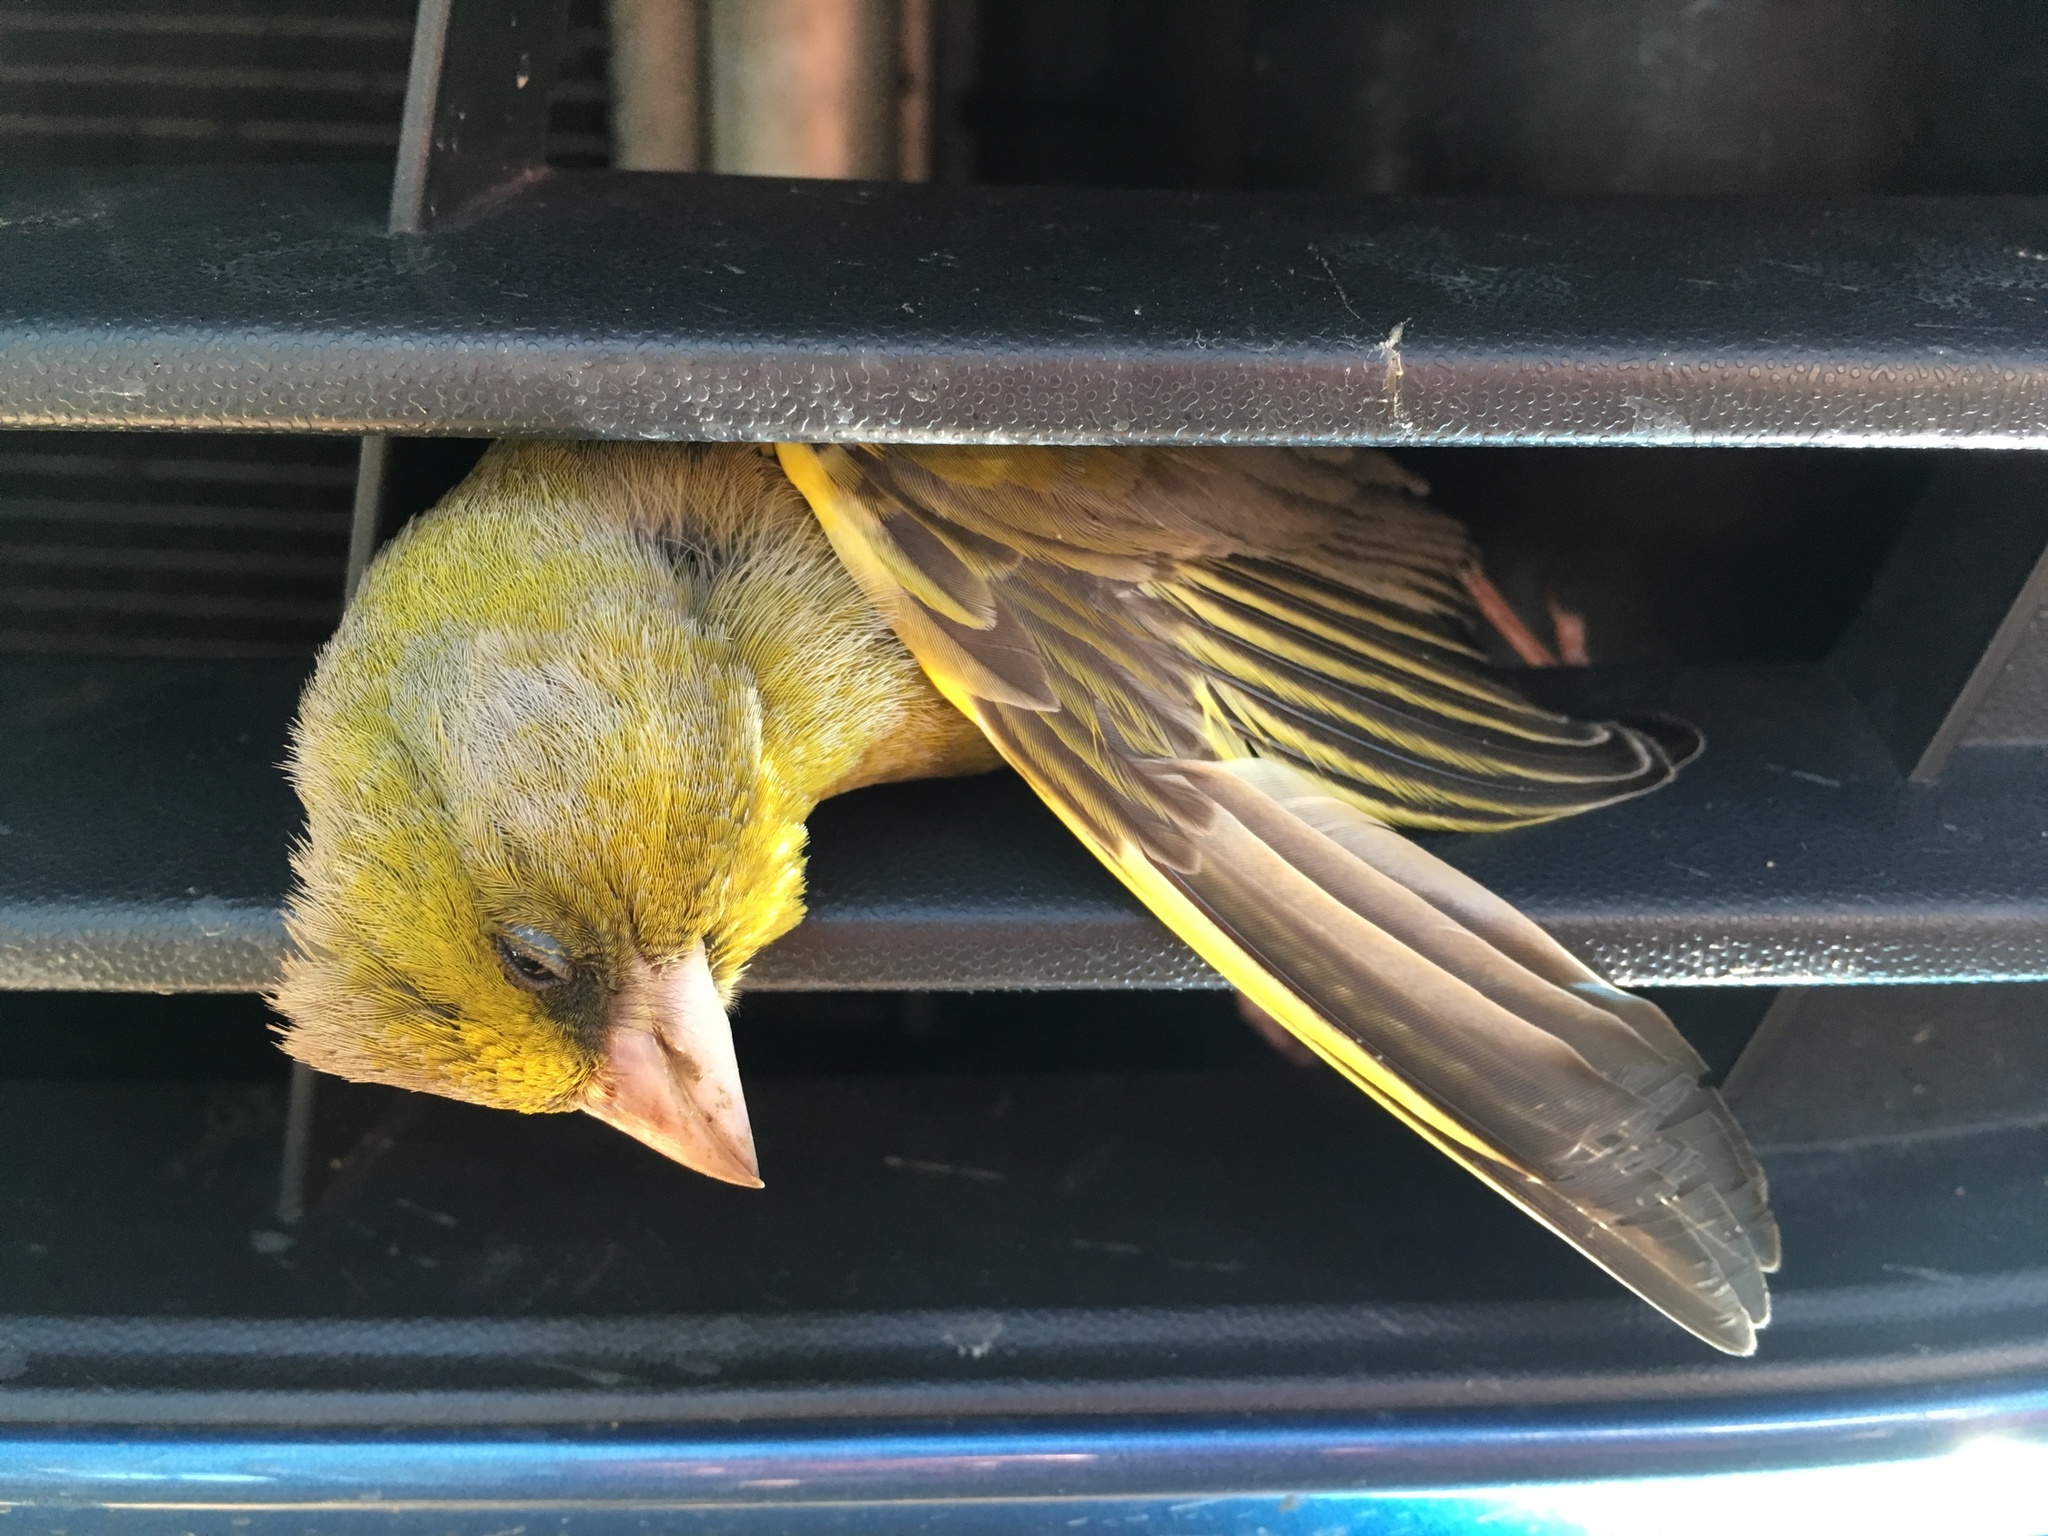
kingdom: Plantae
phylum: Tracheophyta
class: Liliopsida
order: Poales
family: Poaceae
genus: Chloris
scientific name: Chloris chloris
